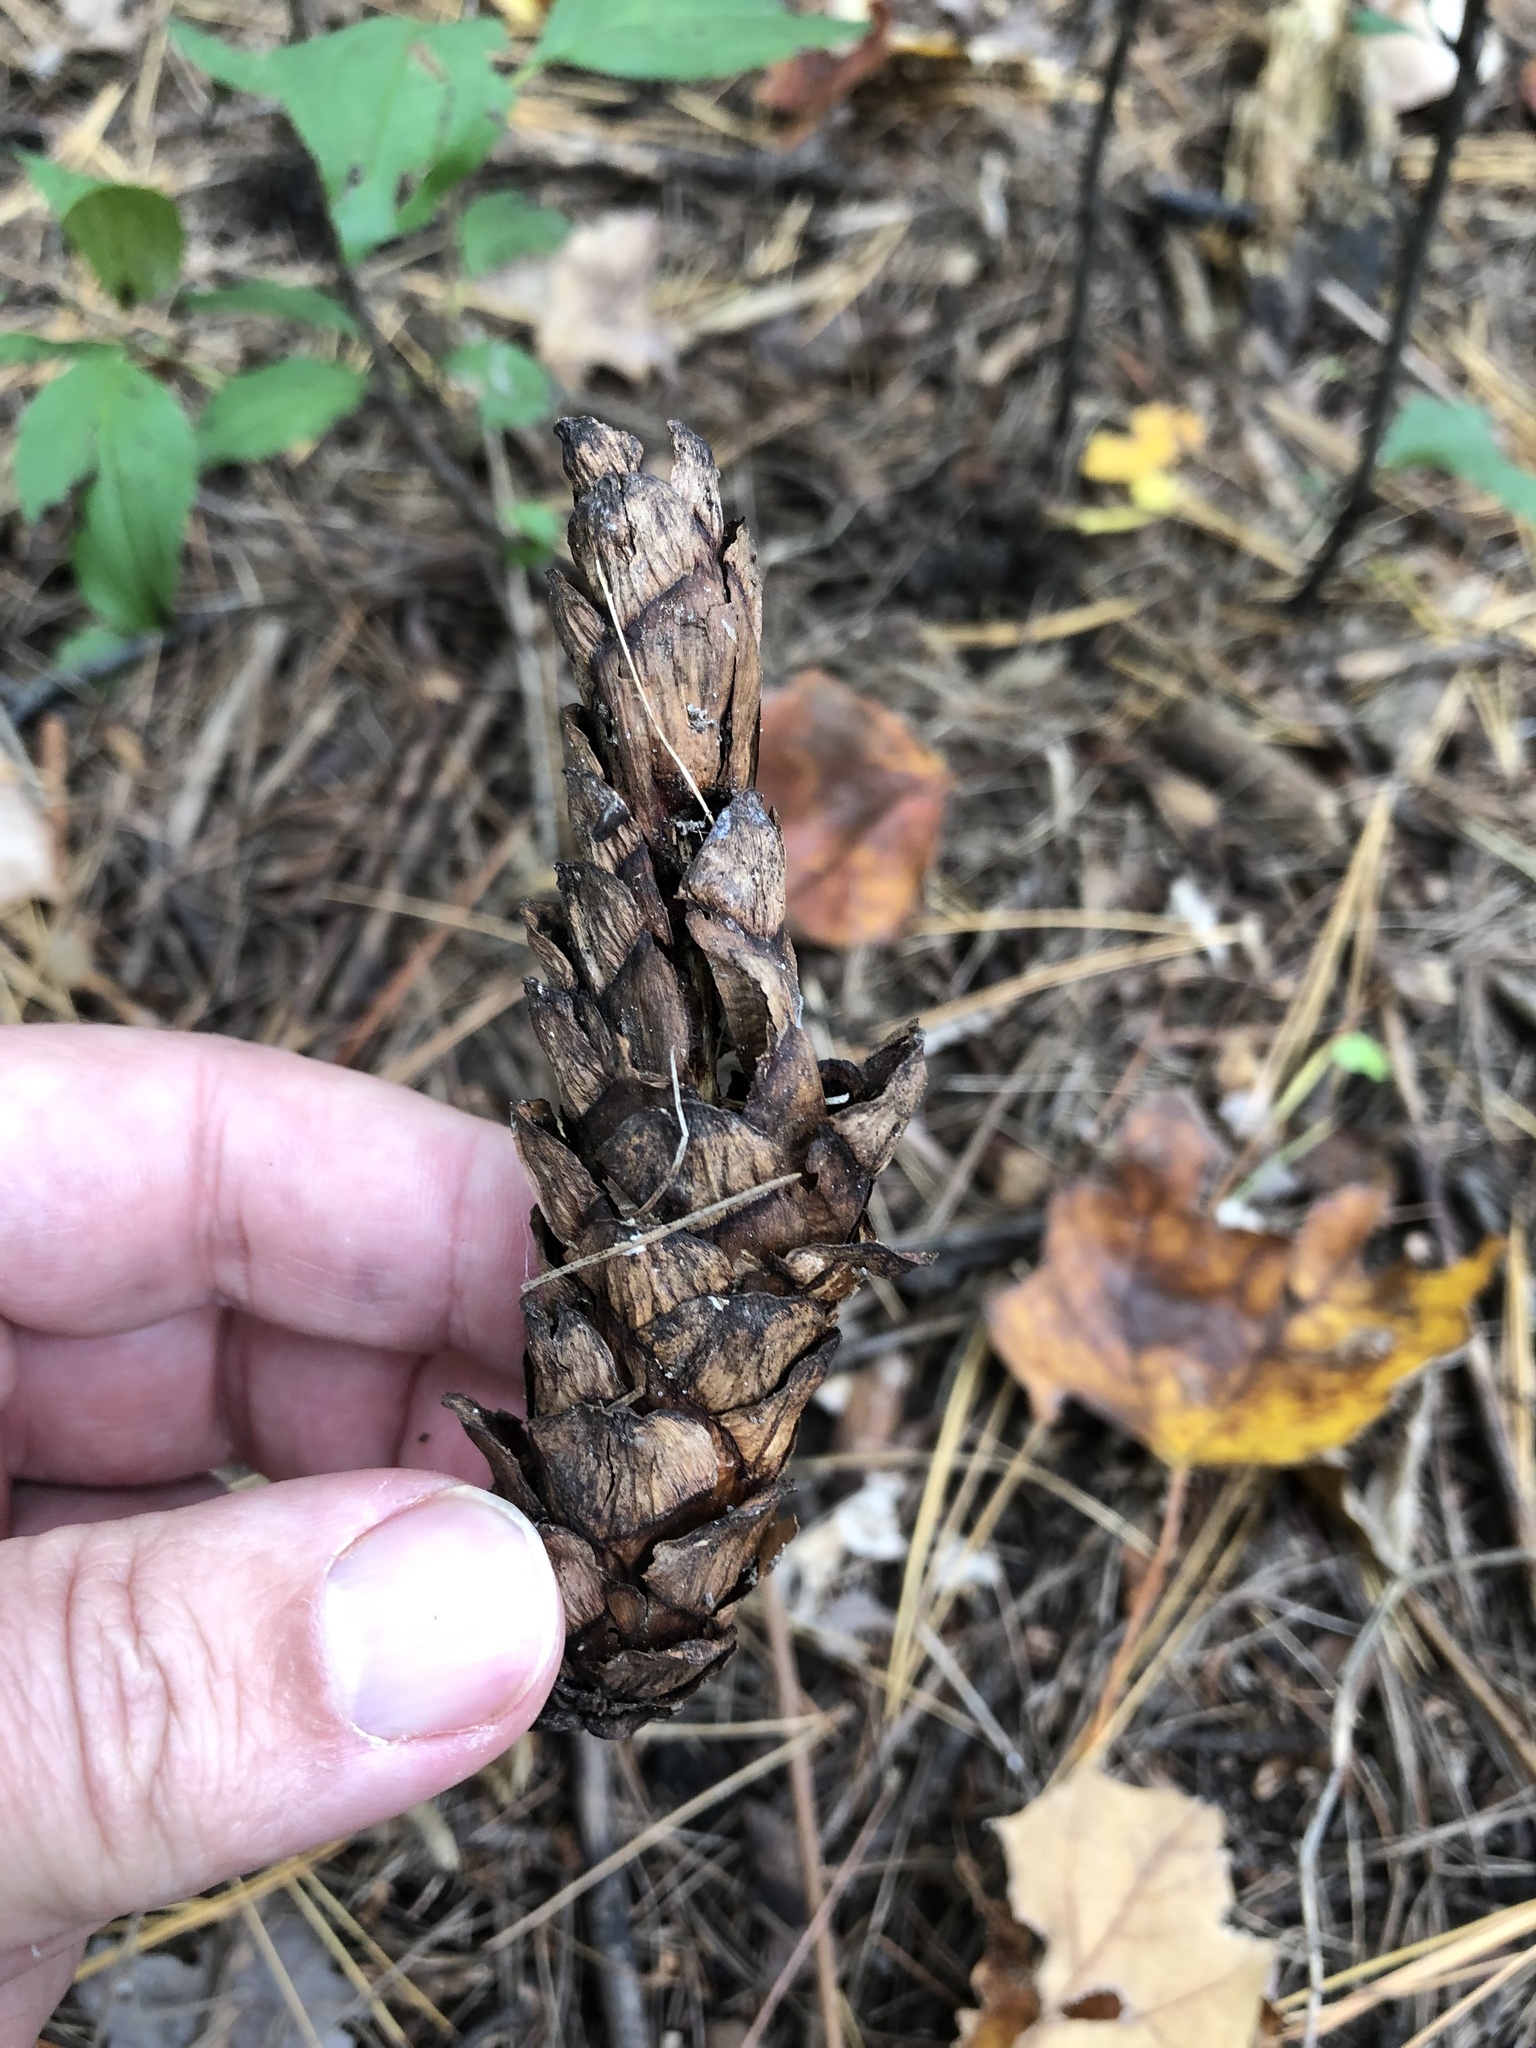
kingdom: Plantae
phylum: Tracheophyta
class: Pinopsida
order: Pinales
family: Pinaceae
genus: Pinus
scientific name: Pinus strobus
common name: Weymouth pine
